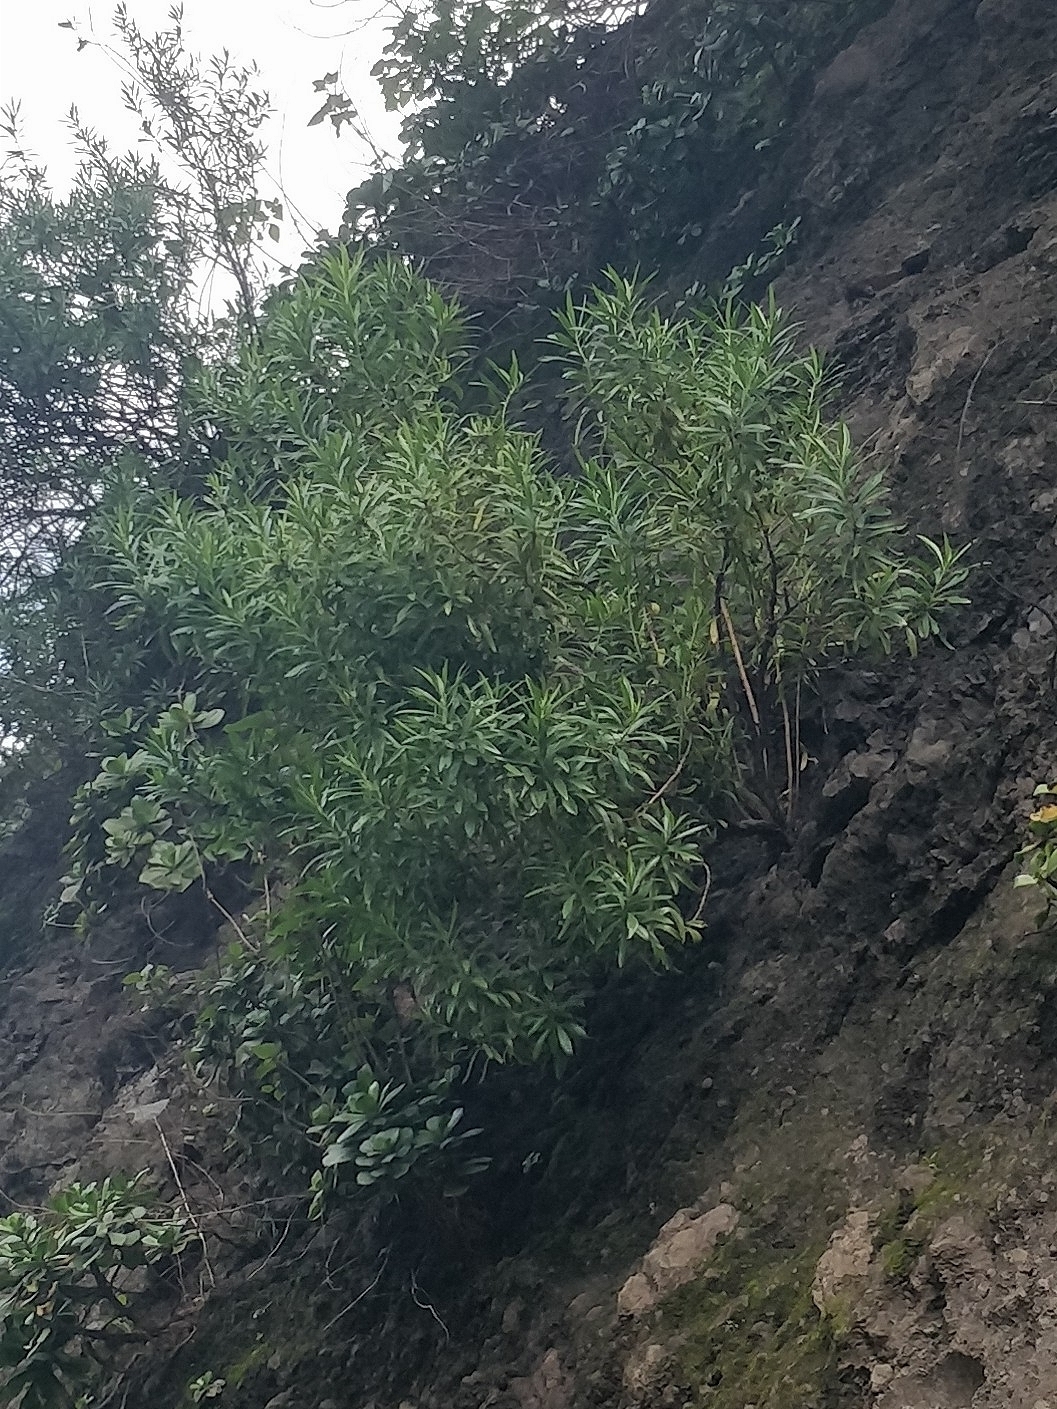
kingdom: Plantae
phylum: Tracheophyta
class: Magnoliopsida
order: Lamiales
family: Plantaginaceae
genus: Globularia
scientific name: Globularia salicina
